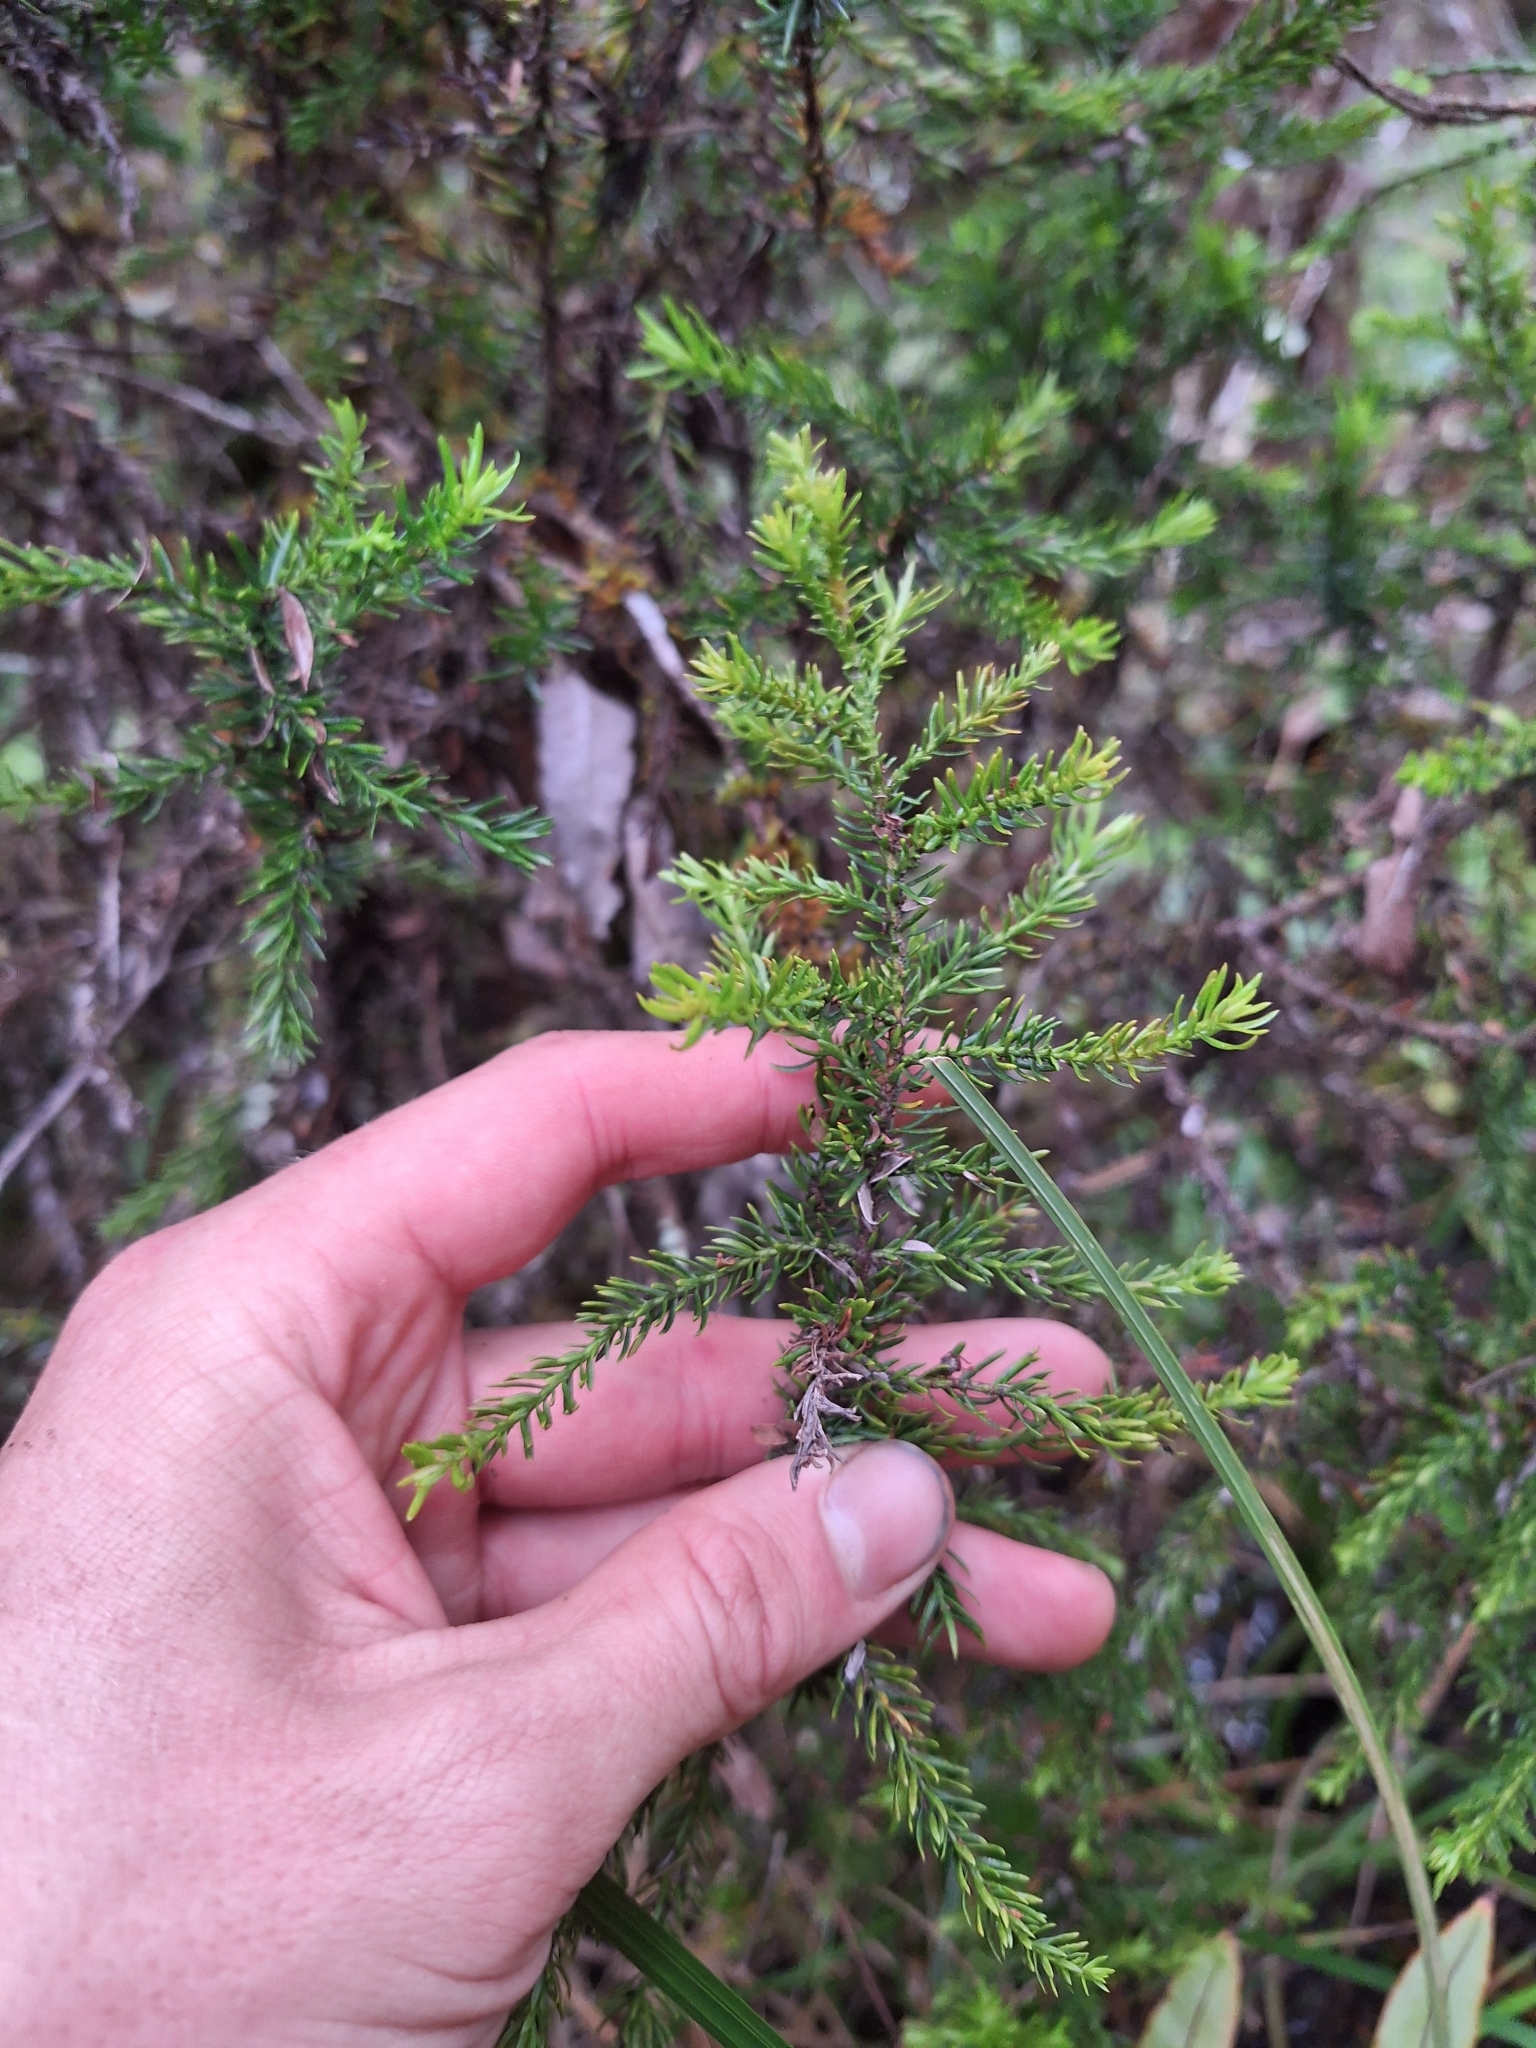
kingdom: Plantae
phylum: Tracheophyta
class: Pinopsida
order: Pinales
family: Podocarpaceae
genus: Halocarpus
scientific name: Halocarpus bidwillii
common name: Bog pine
